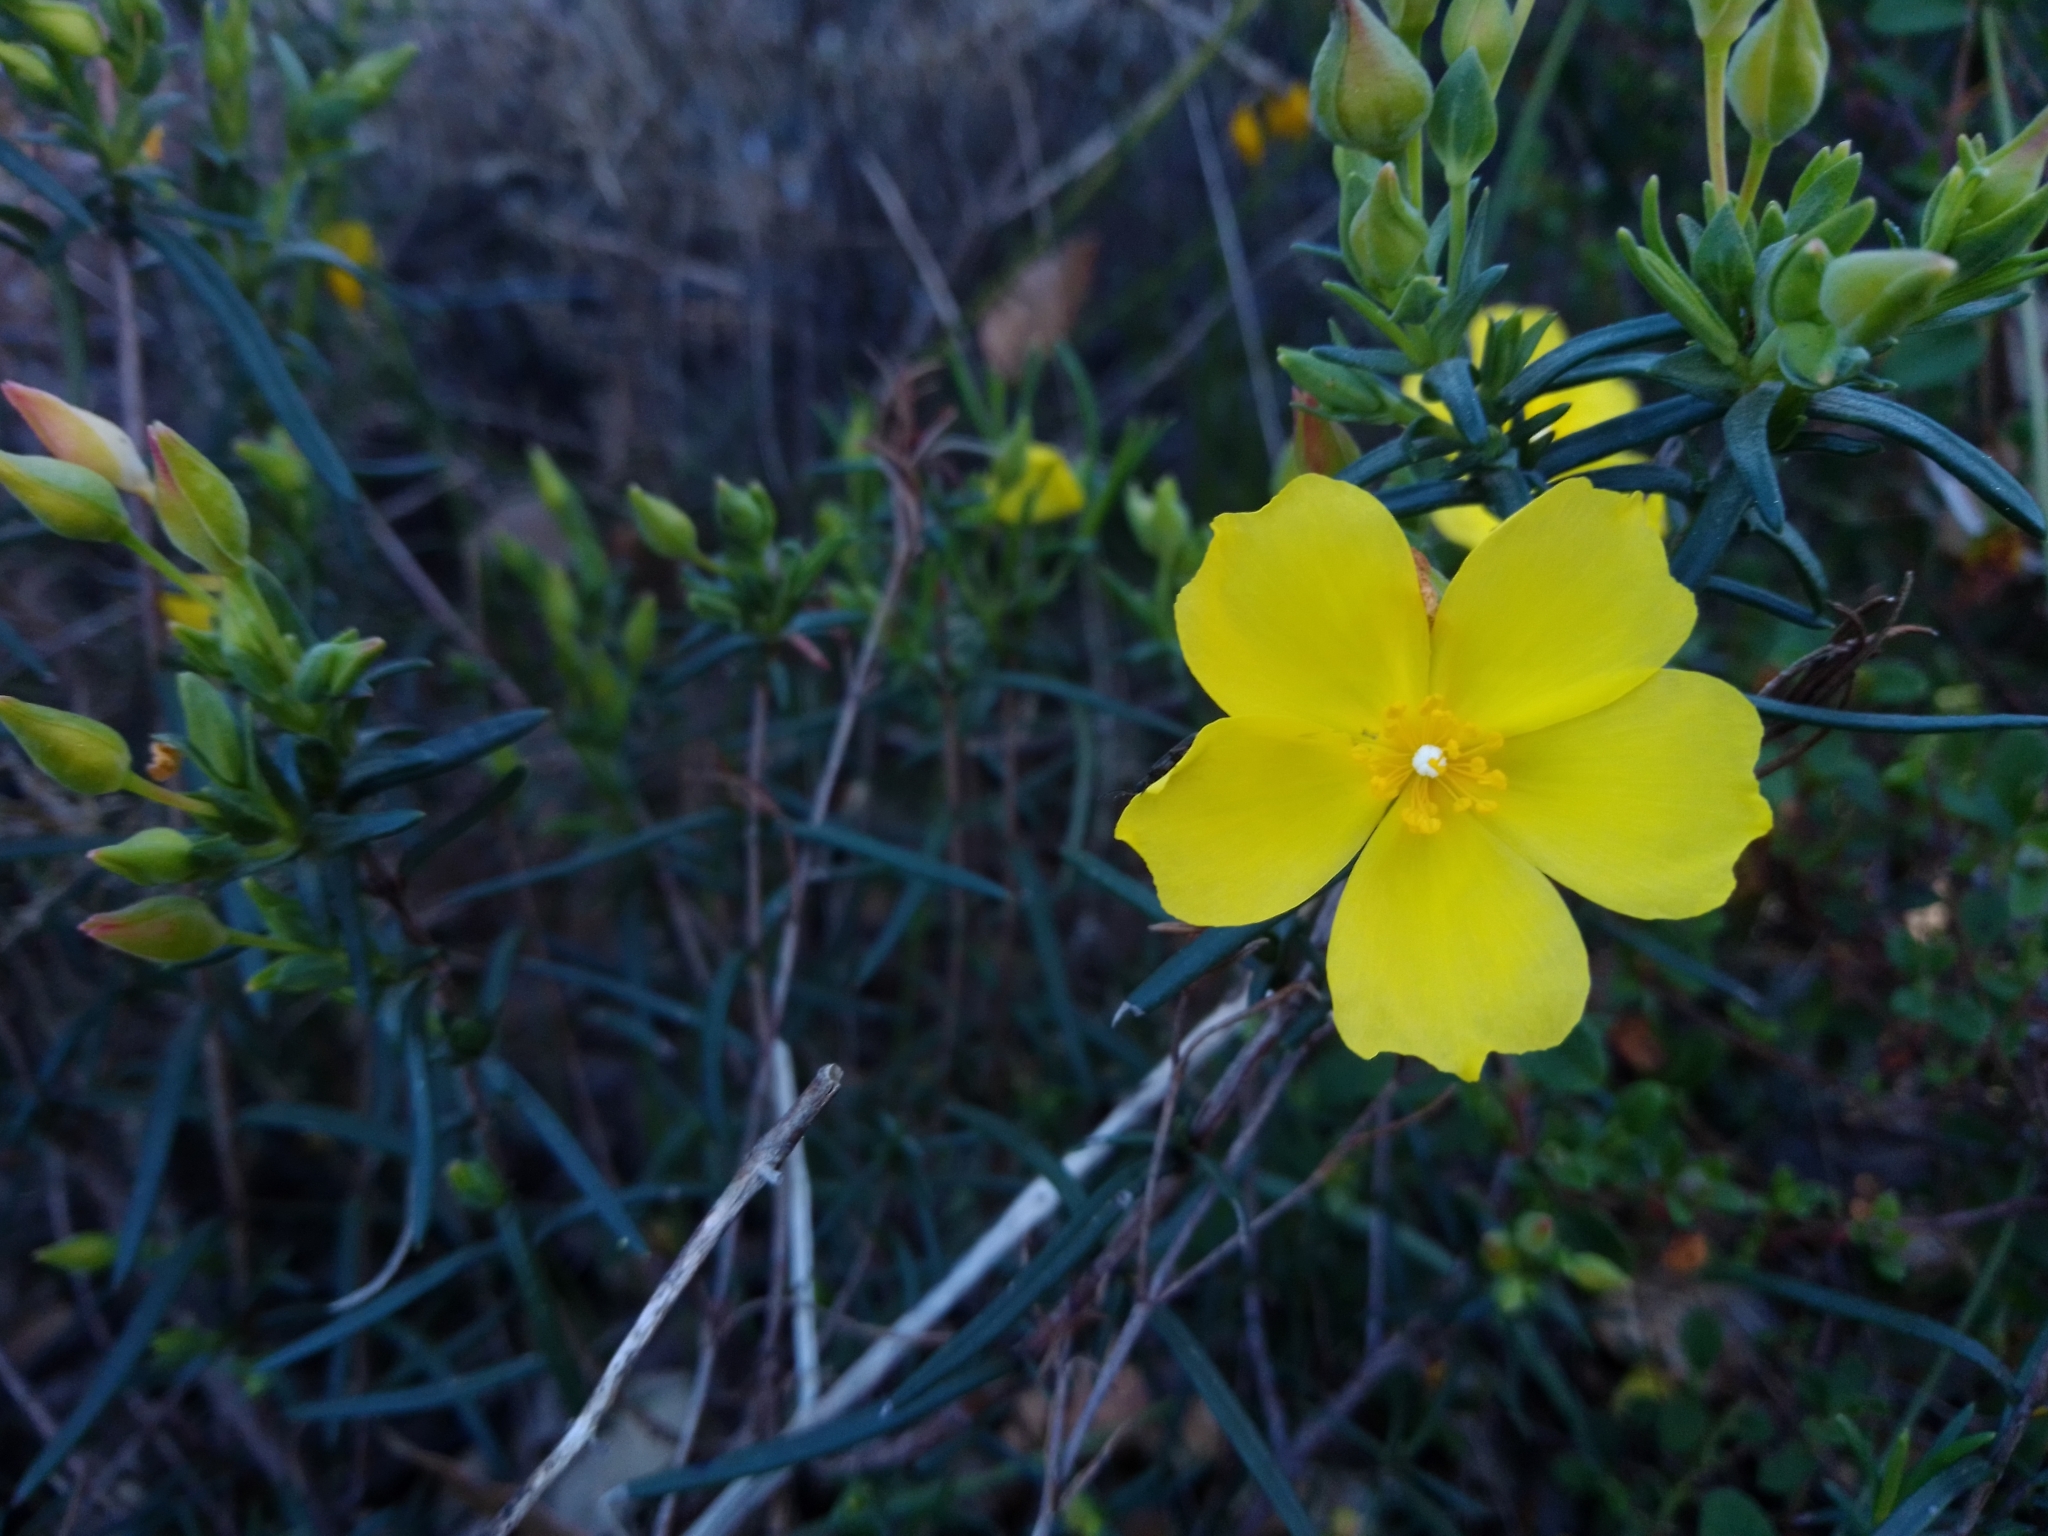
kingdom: Plantae
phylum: Tracheophyta
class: Magnoliopsida
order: Malvales
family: Cistaceae
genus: Halimium
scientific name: Halimium calycinum
